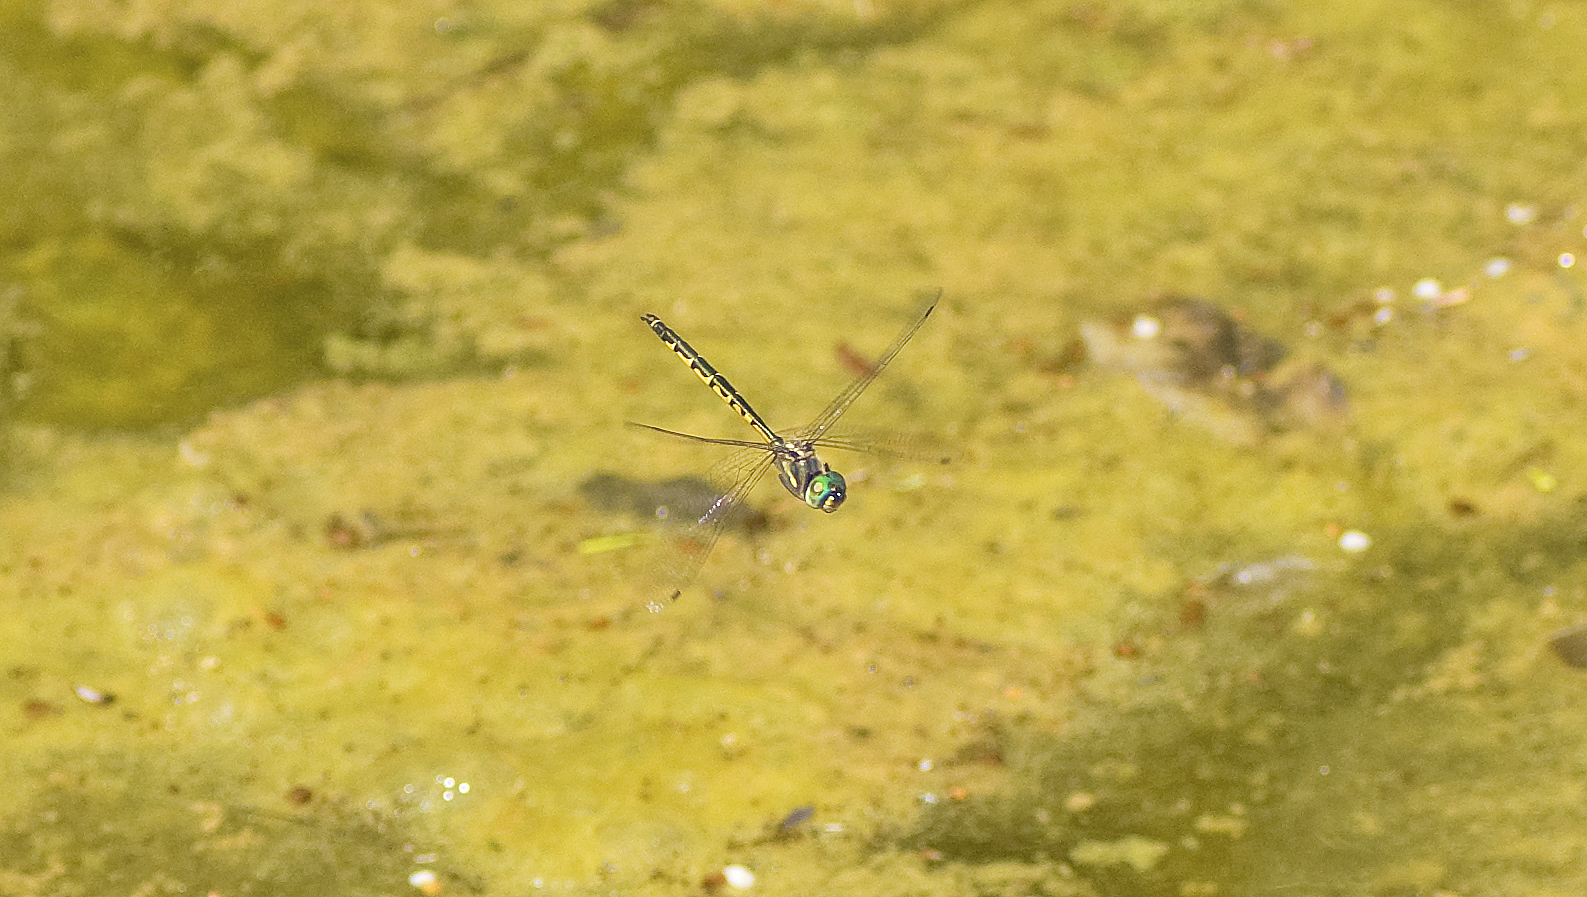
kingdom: Animalia
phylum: Arthropoda
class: Insecta
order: Odonata
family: Corduliidae
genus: Hemicordulia
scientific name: Hemicordulia australiae
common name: Sentry dragonfly
